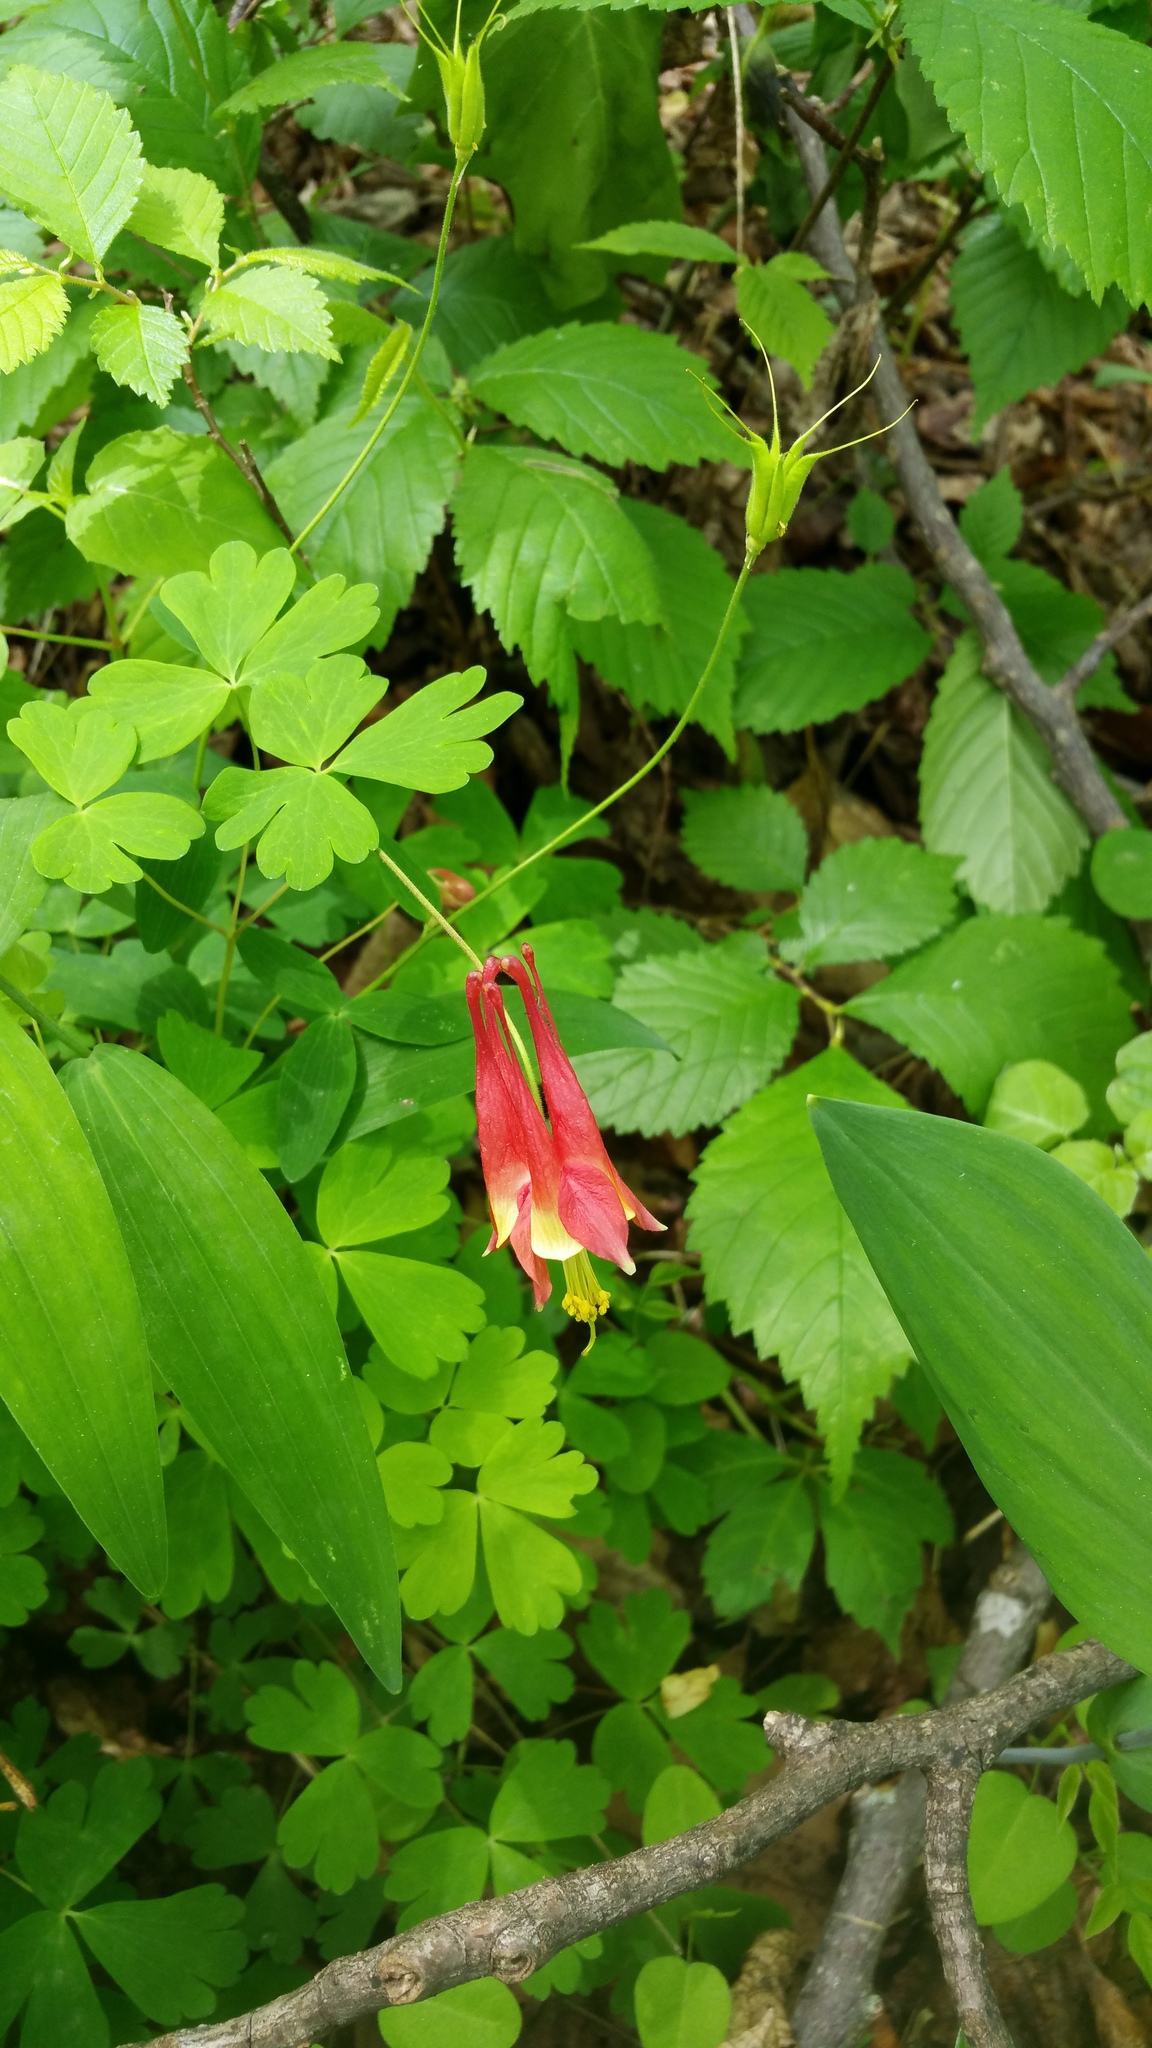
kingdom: Plantae
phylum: Tracheophyta
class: Magnoliopsida
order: Ranunculales
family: Ranunculaceae
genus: Aquilegia
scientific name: Aquilegia canadensis
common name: American columbine
